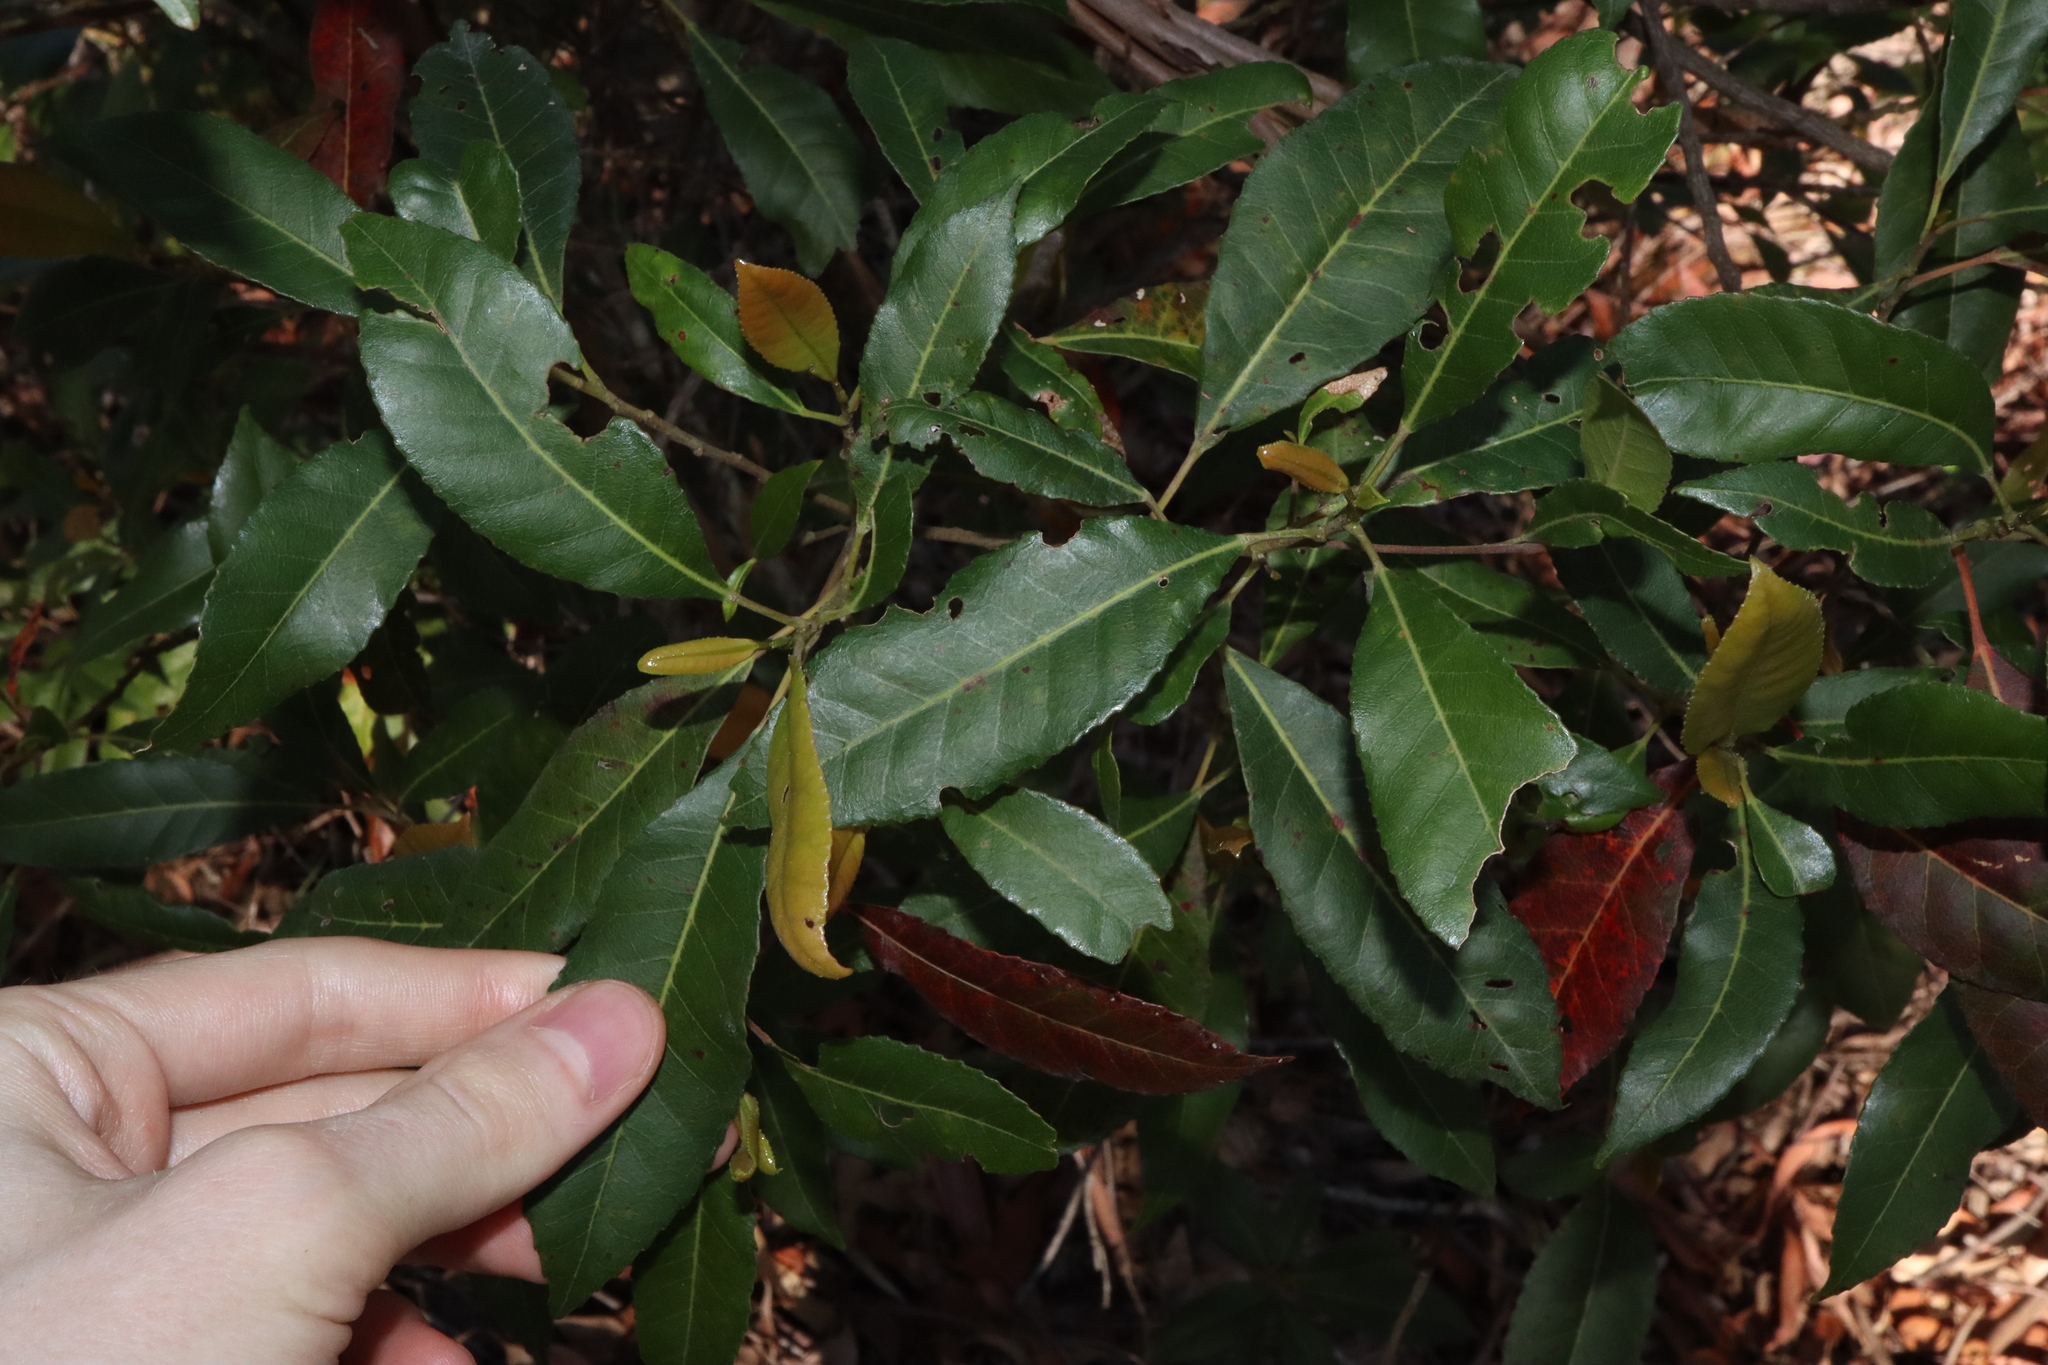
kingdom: Plantae
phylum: Tracheophyta
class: Magnoliopsida
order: Oxalidales
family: Elaeocarpaceae
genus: Elaeocarpus
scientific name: Elaeocarpus reticulatus
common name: Ash quandong
